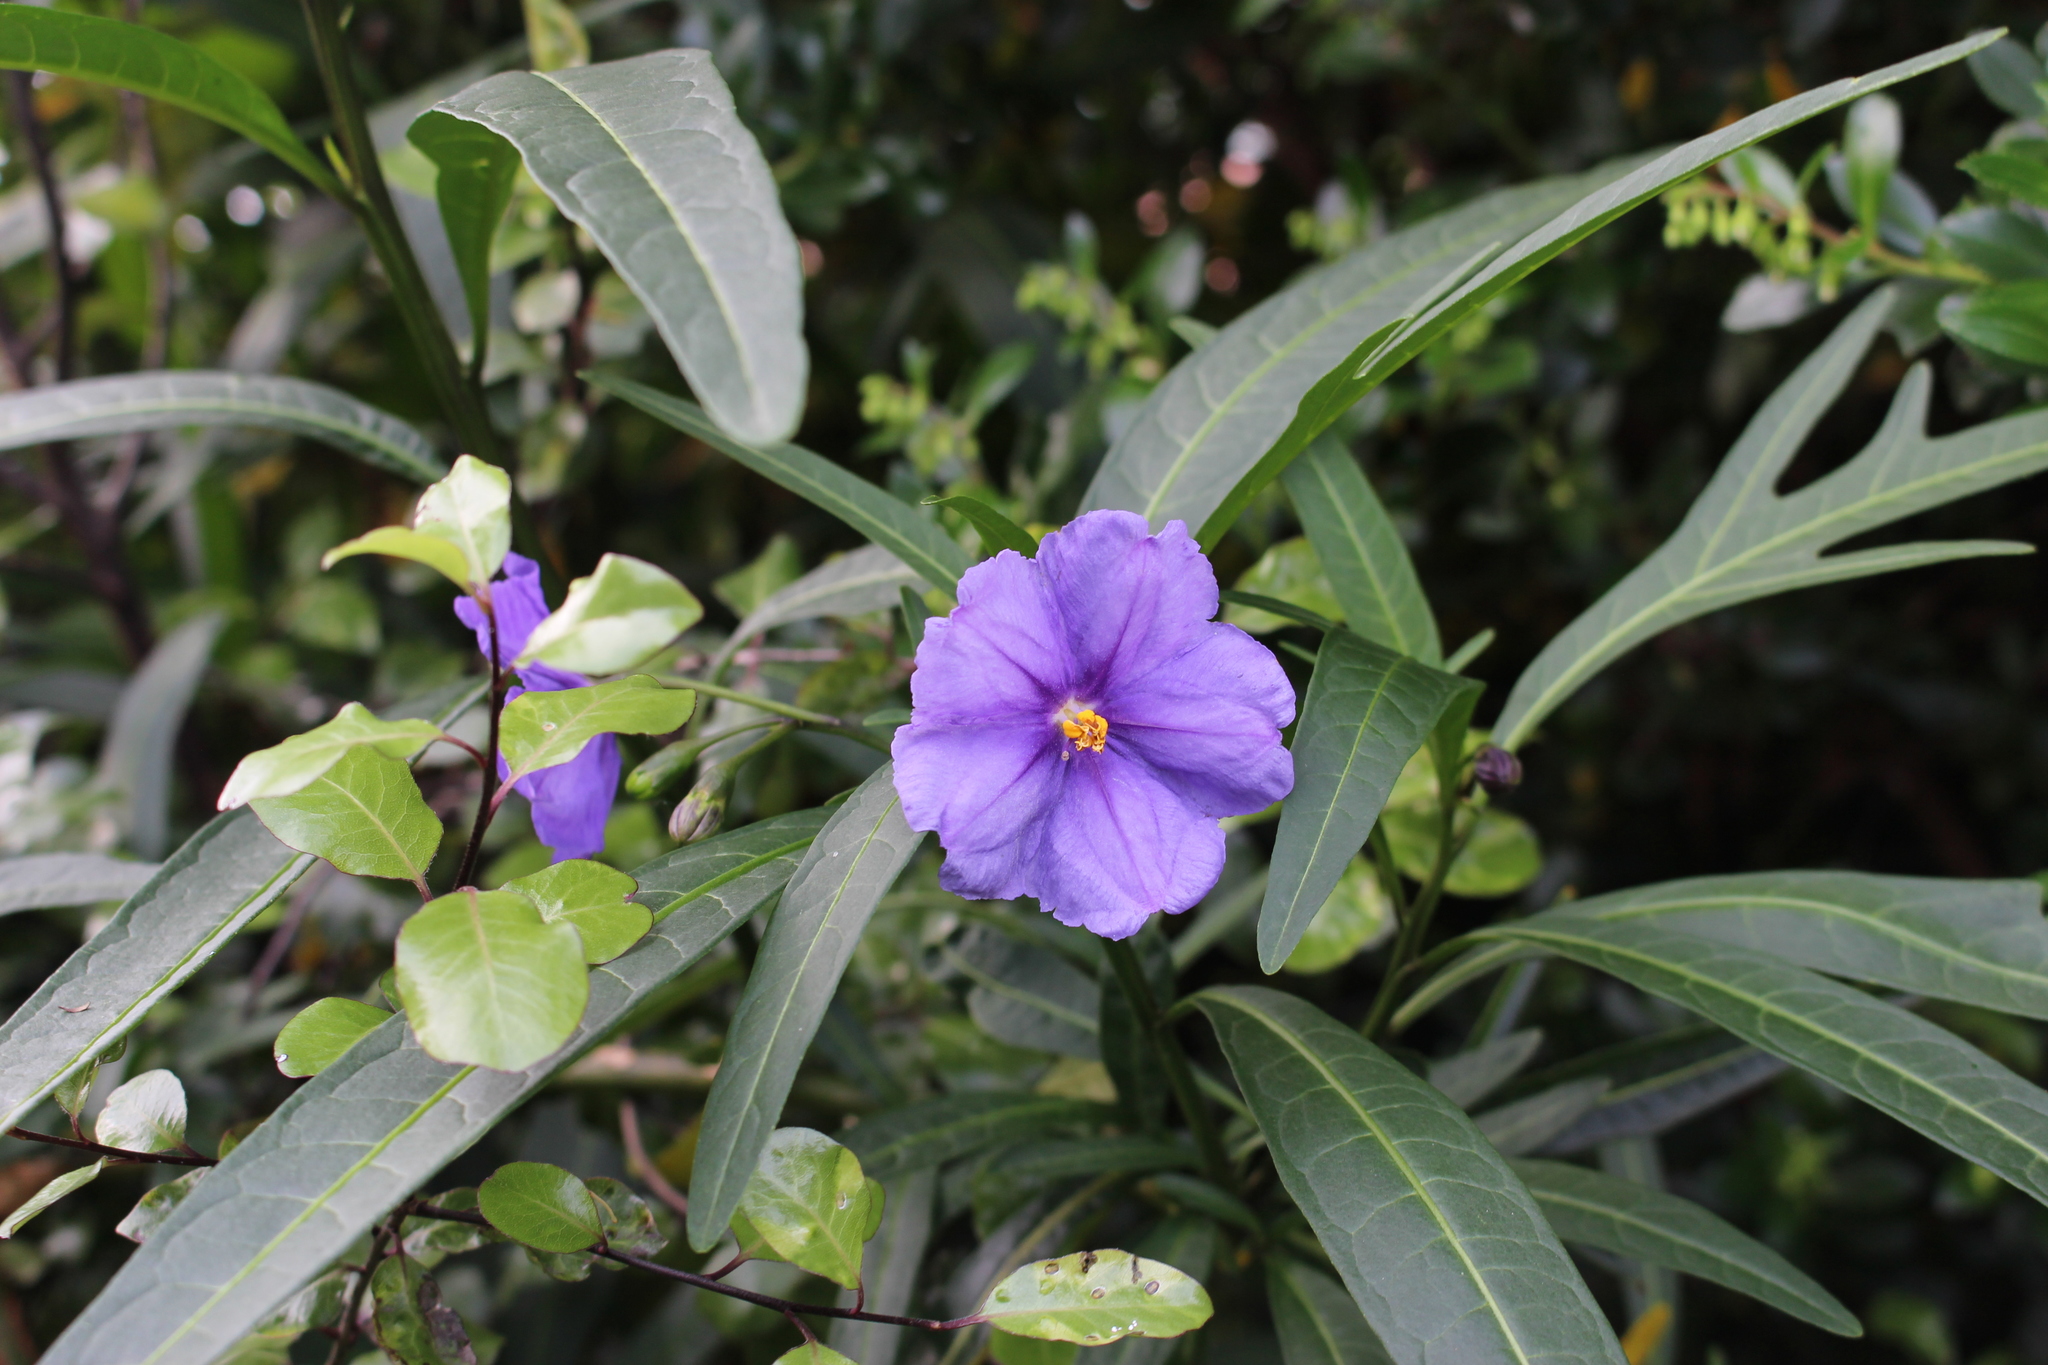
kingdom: Plantae
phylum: Tracheophyta
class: Magnoliopsida
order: Solanales
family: Solanaceae
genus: Solanum
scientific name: Solanum laciniatum
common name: Kangaroo-apple
